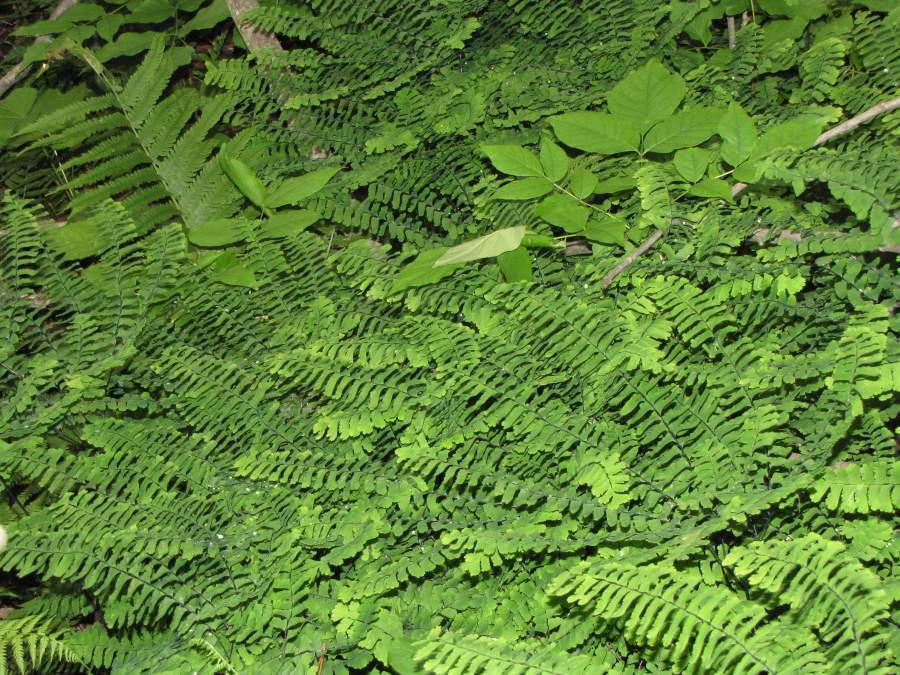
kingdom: Plantae
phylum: Tracheophyta
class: Polypodiopsida
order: Polypodiales
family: Pteridaceae
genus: Adiantum
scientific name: Adiantum pedatum
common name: Five-finger fern
